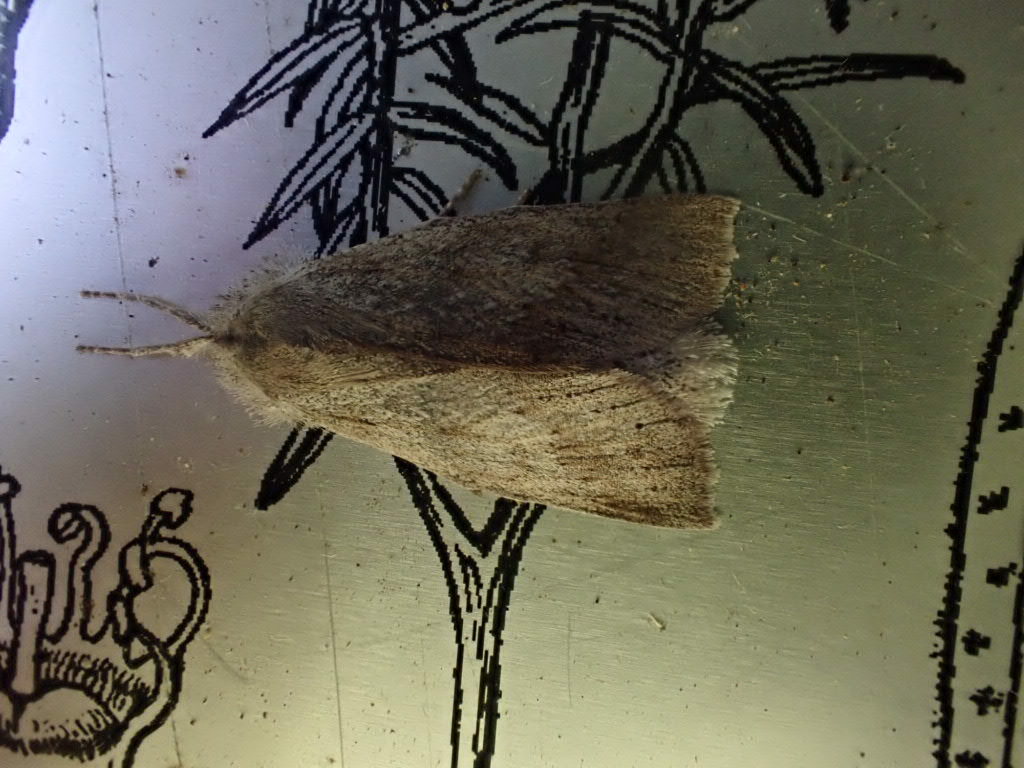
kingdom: Animalia
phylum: Arthropoda
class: Insecta
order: Lepidoptera
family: Geometridae
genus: Declana
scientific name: Declana leptomera
